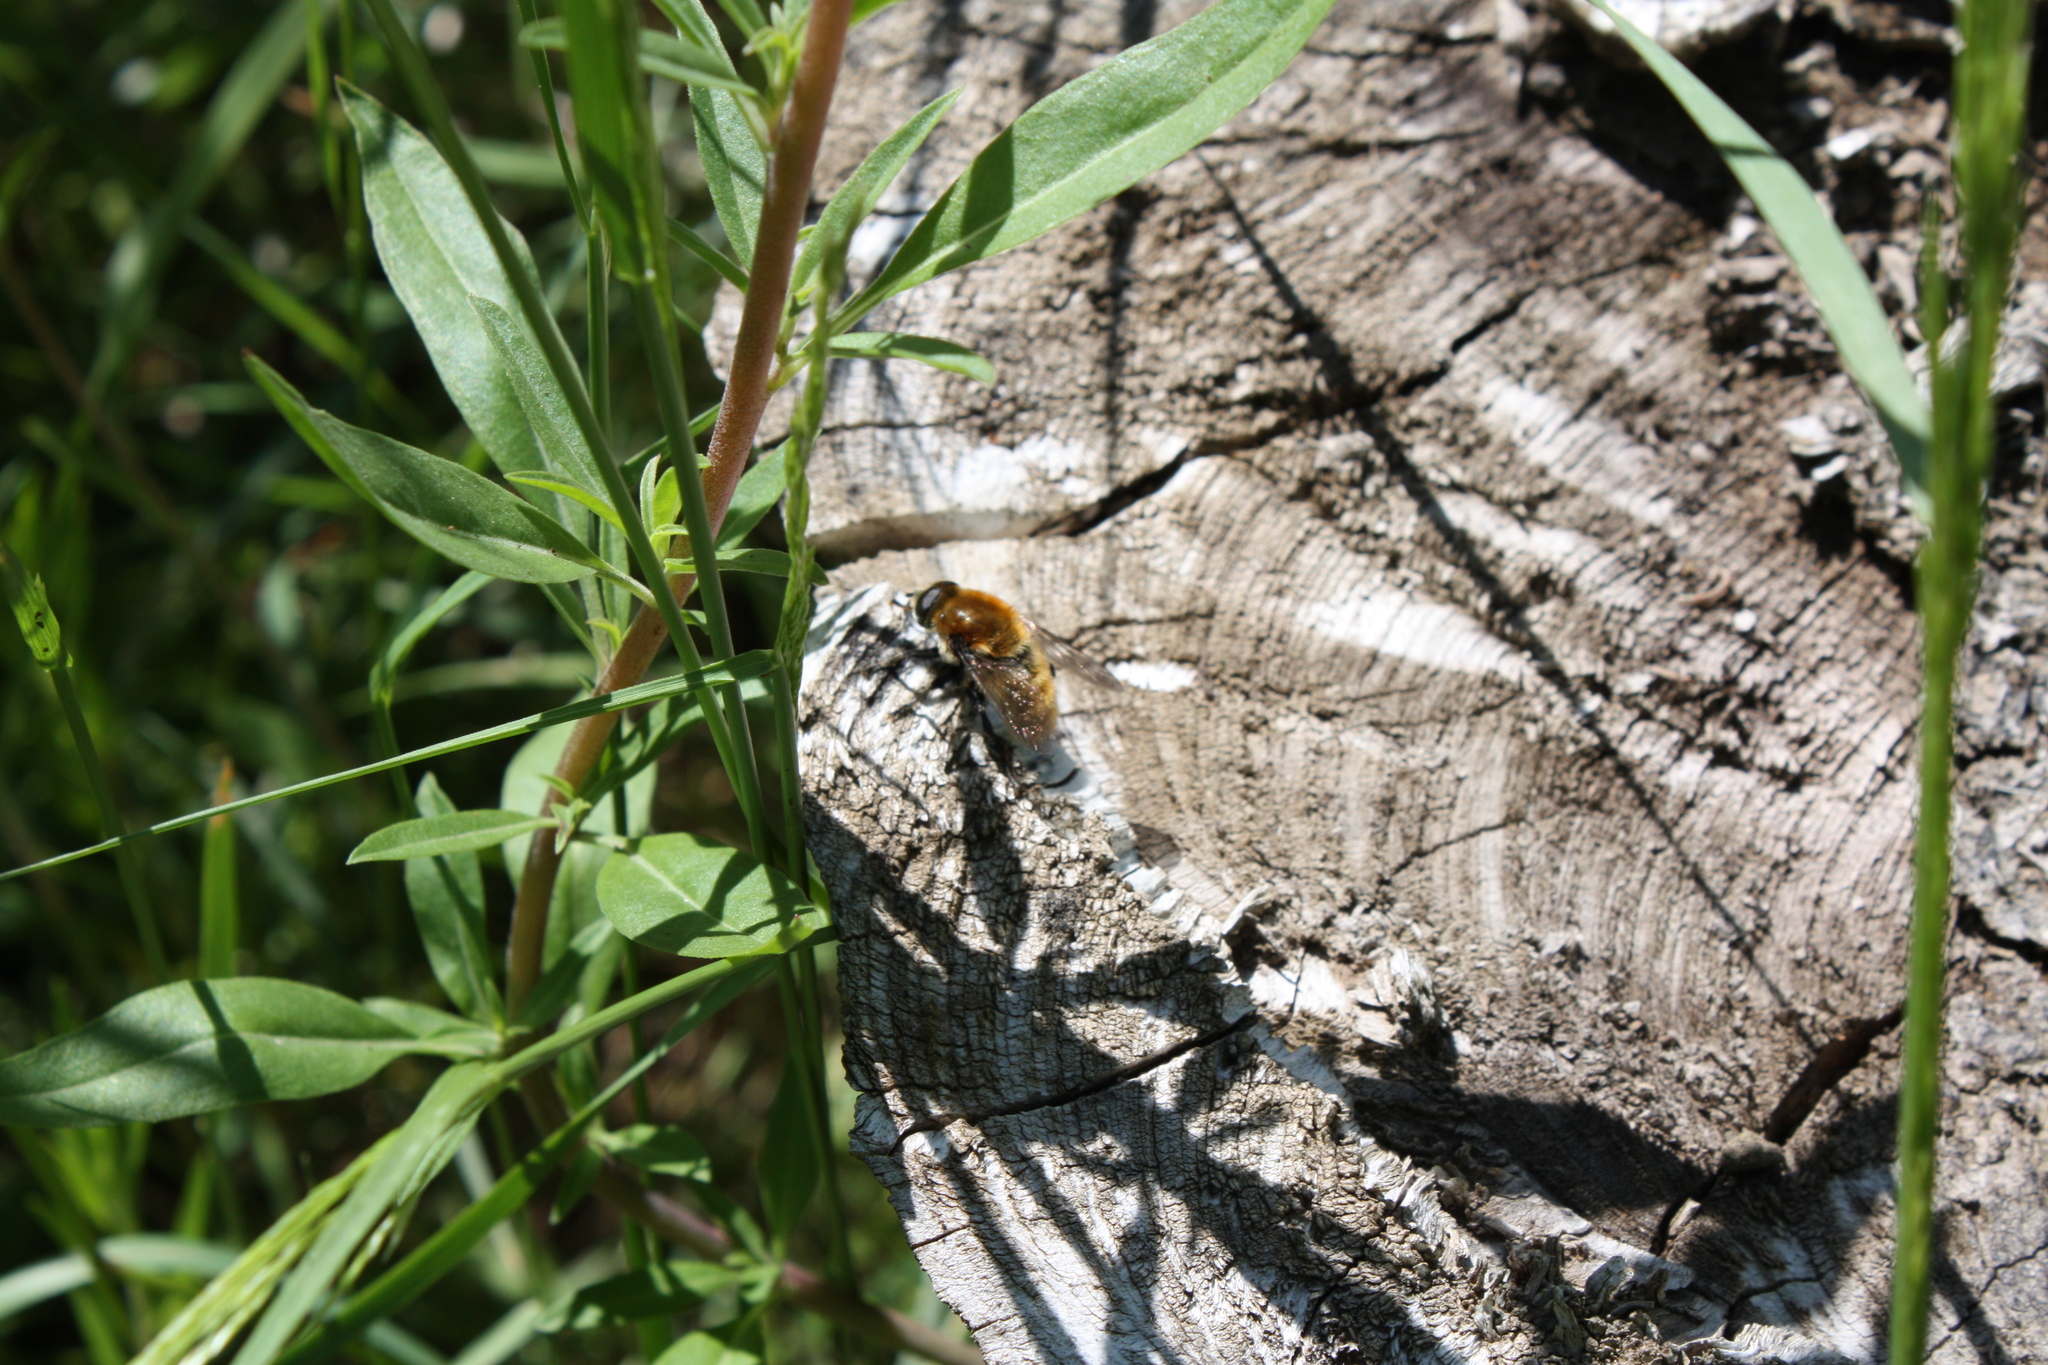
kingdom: Animalia
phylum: Arthropoda
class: Insecta
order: Diptera
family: Syrphidae
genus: Merodon
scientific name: Merodon equestris
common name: Greater bulb-fly
